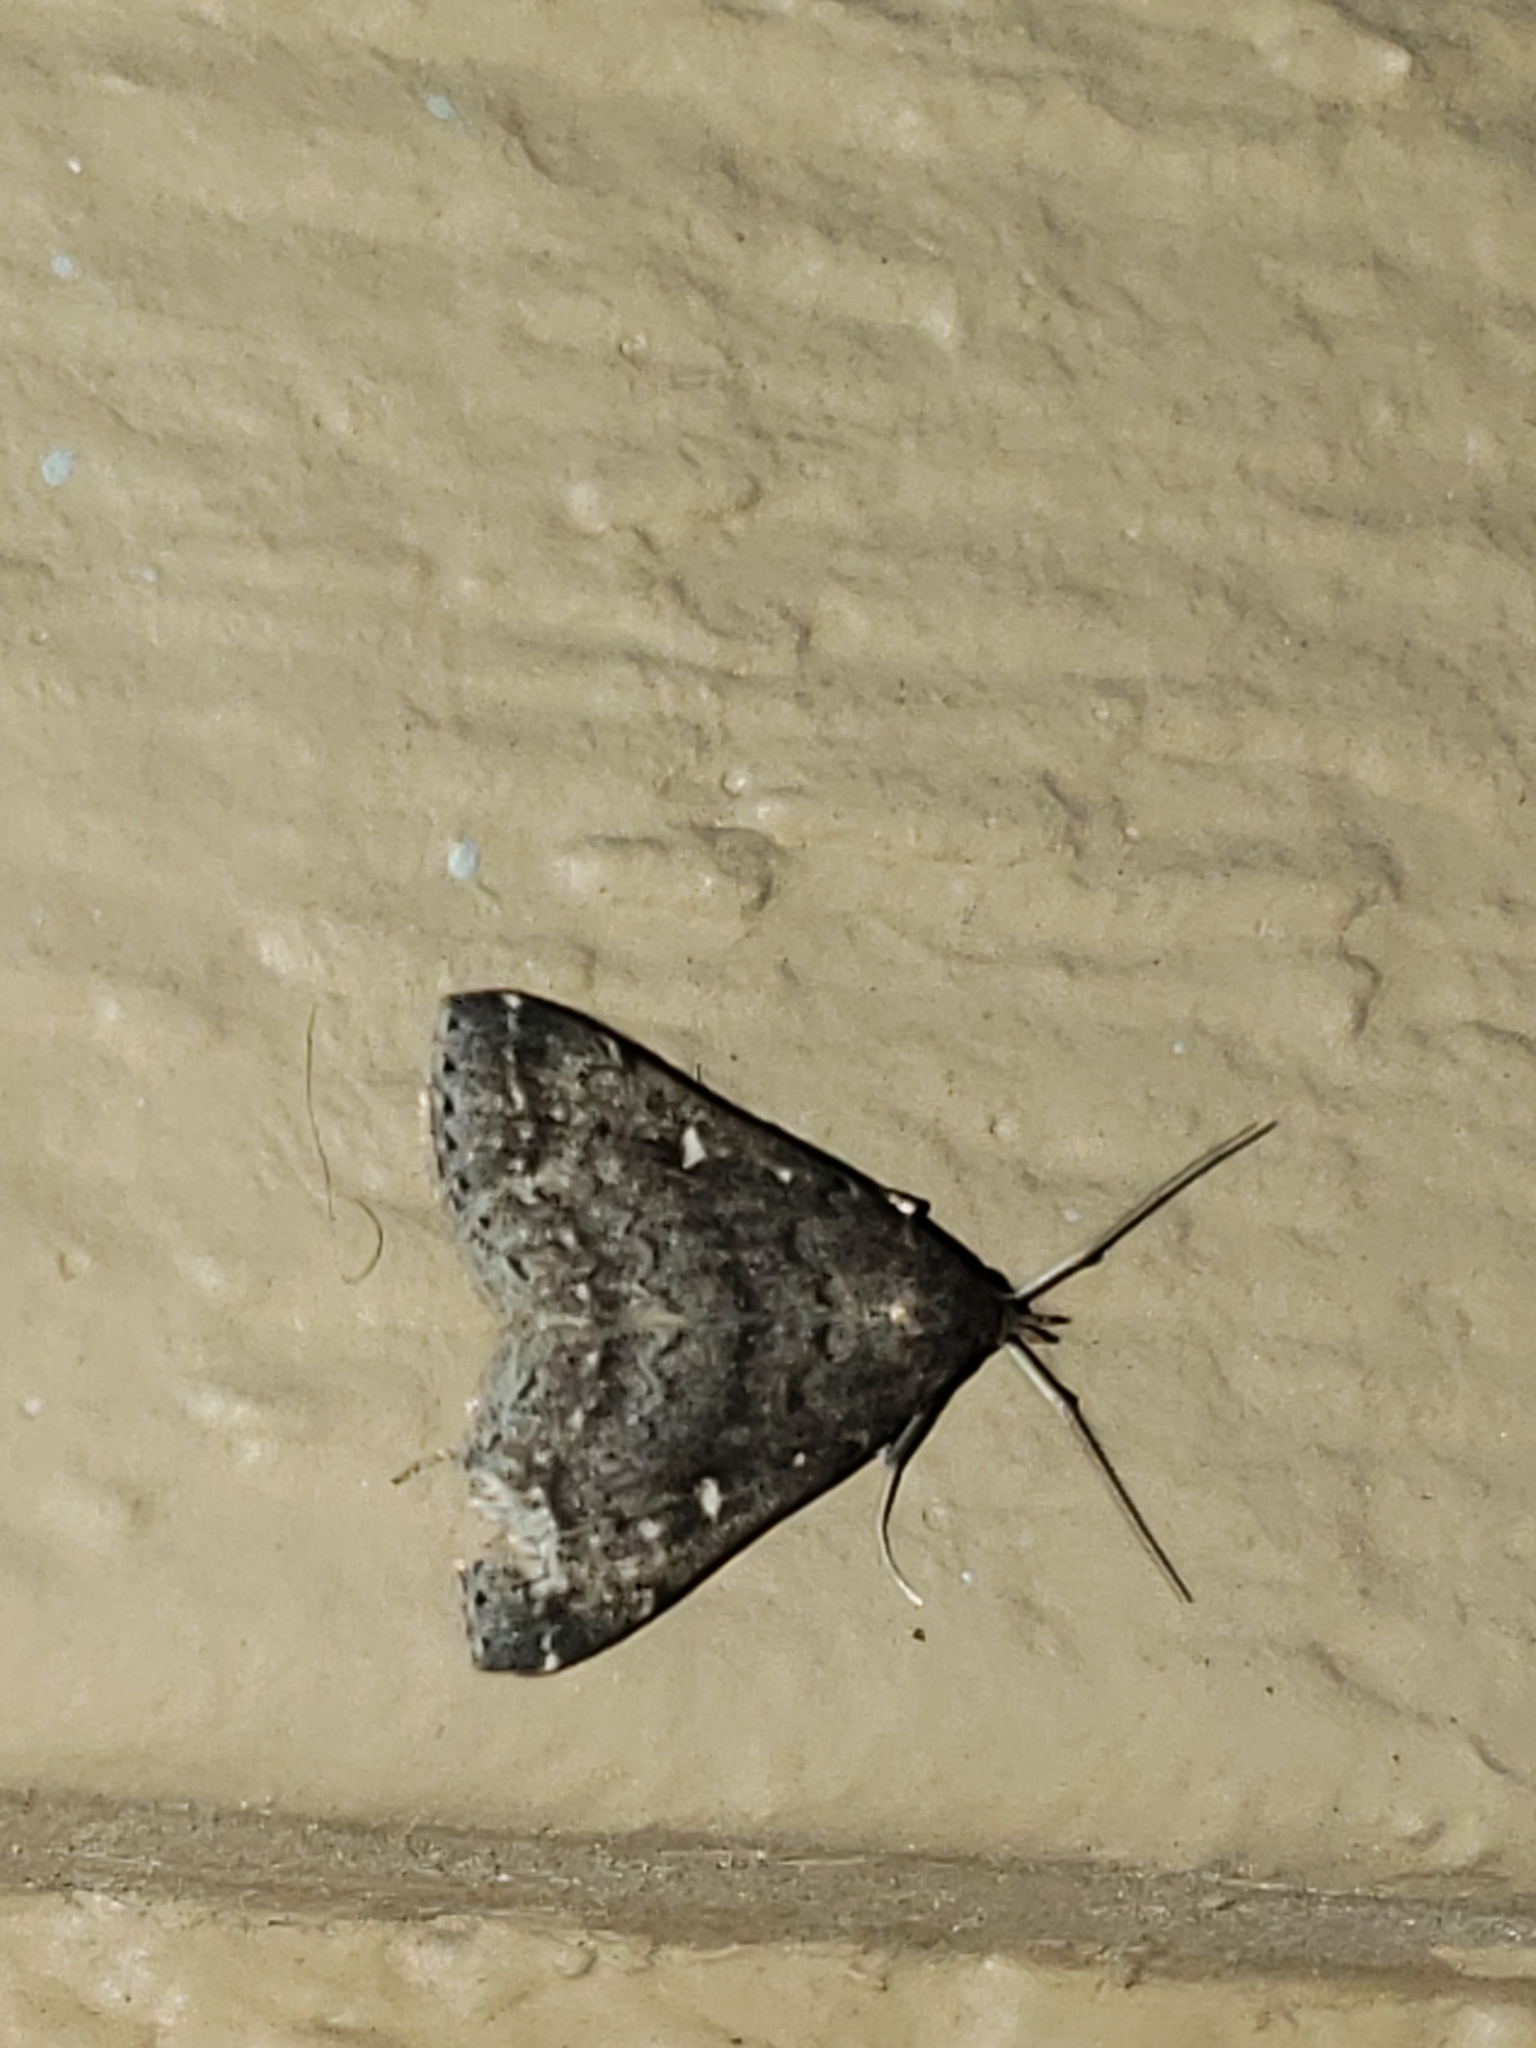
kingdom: Animalia
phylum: Arthropoda
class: Insecta
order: Lepidoptera
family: Erebidae
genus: Tetanolita
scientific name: Tetanolita mynesalis
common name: Smoky tetanolita moth
